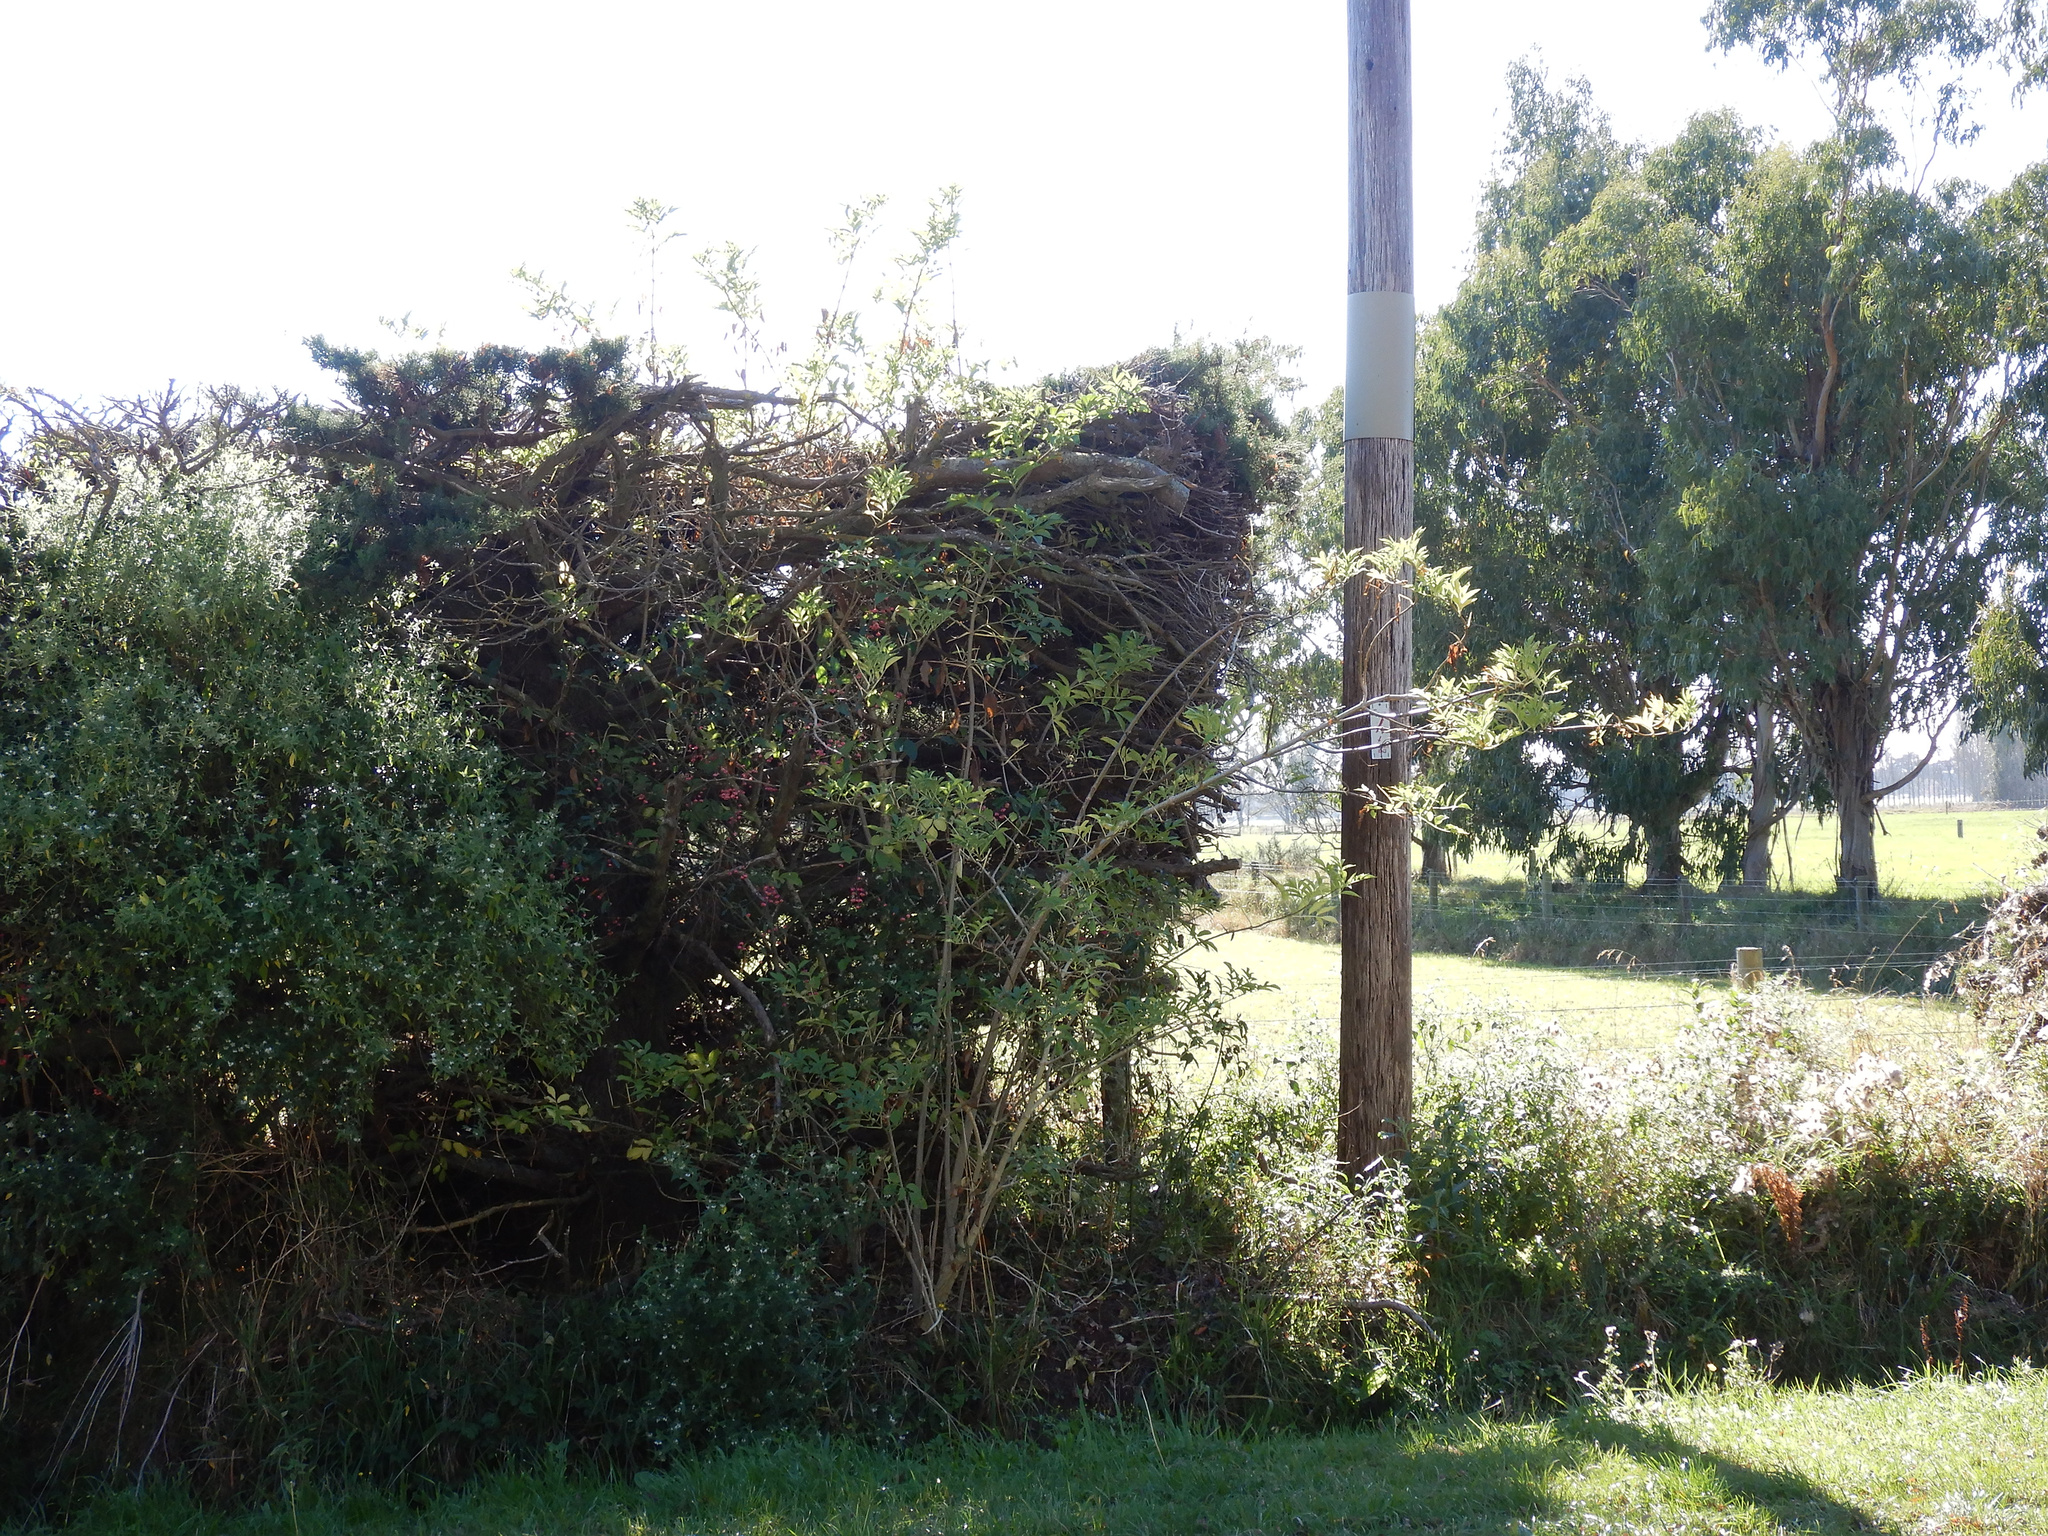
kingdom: Plantae
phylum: Tracheophyta
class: Magnoliopsida
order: Dipsacales
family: Viburnaceae
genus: Sambucus
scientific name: Sambucus nigra
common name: Elder
